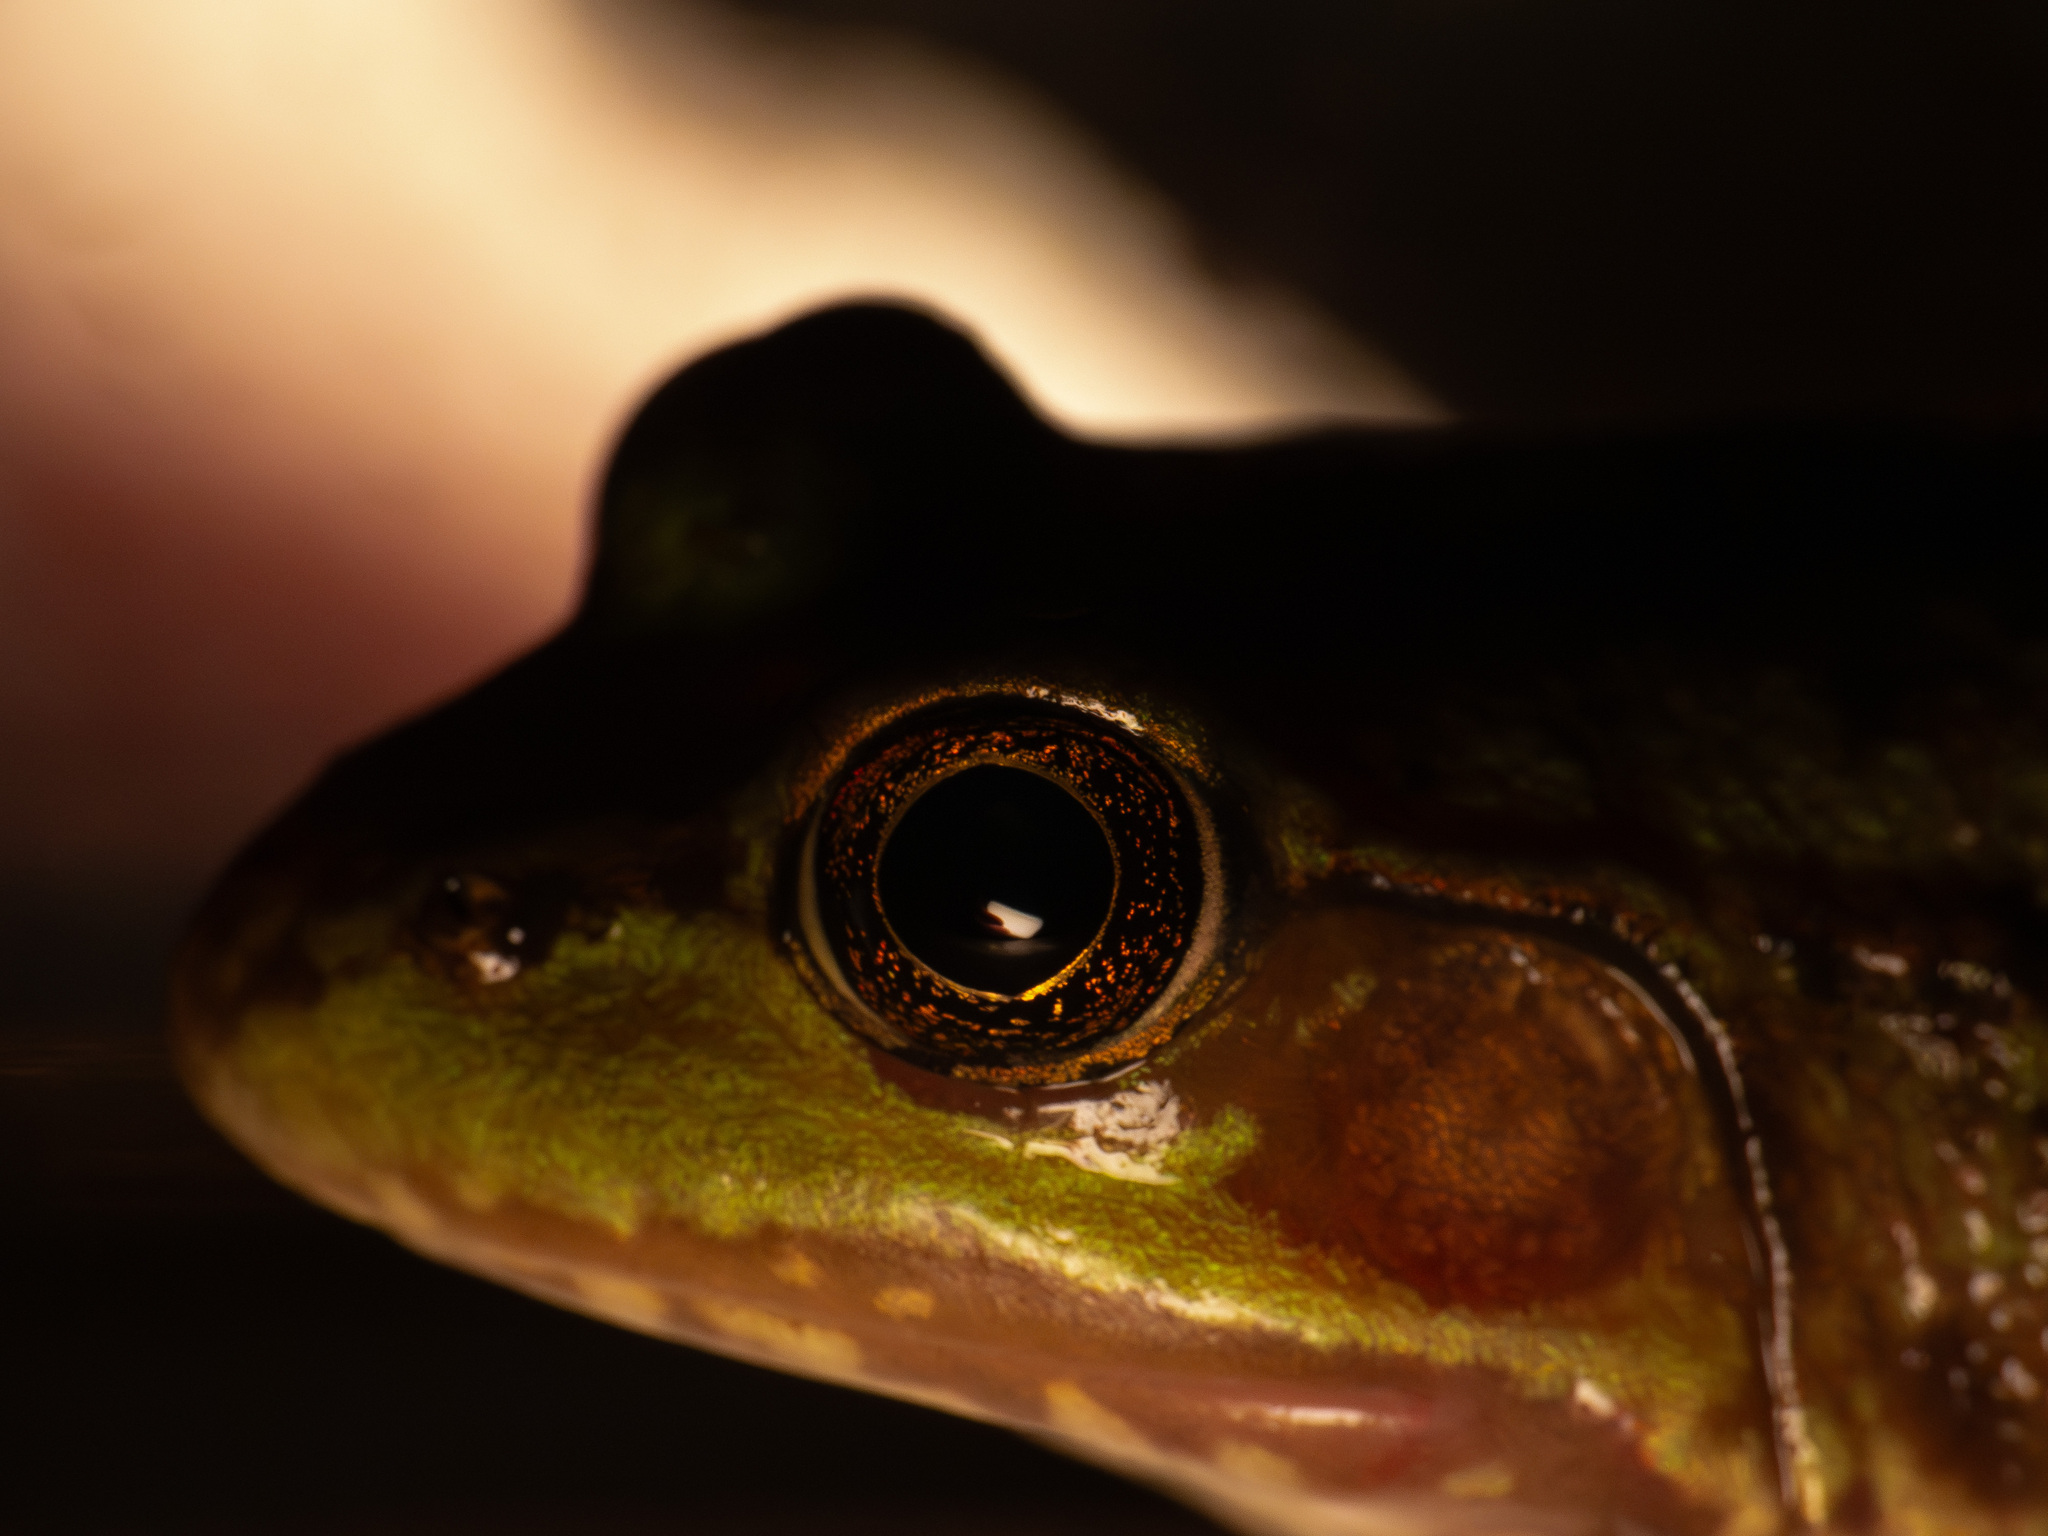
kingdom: Animalia
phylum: Chordata
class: Amphibia
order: Anura
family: Ranidae
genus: Lithobates
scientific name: Lithobates clamitans
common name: Green frog
